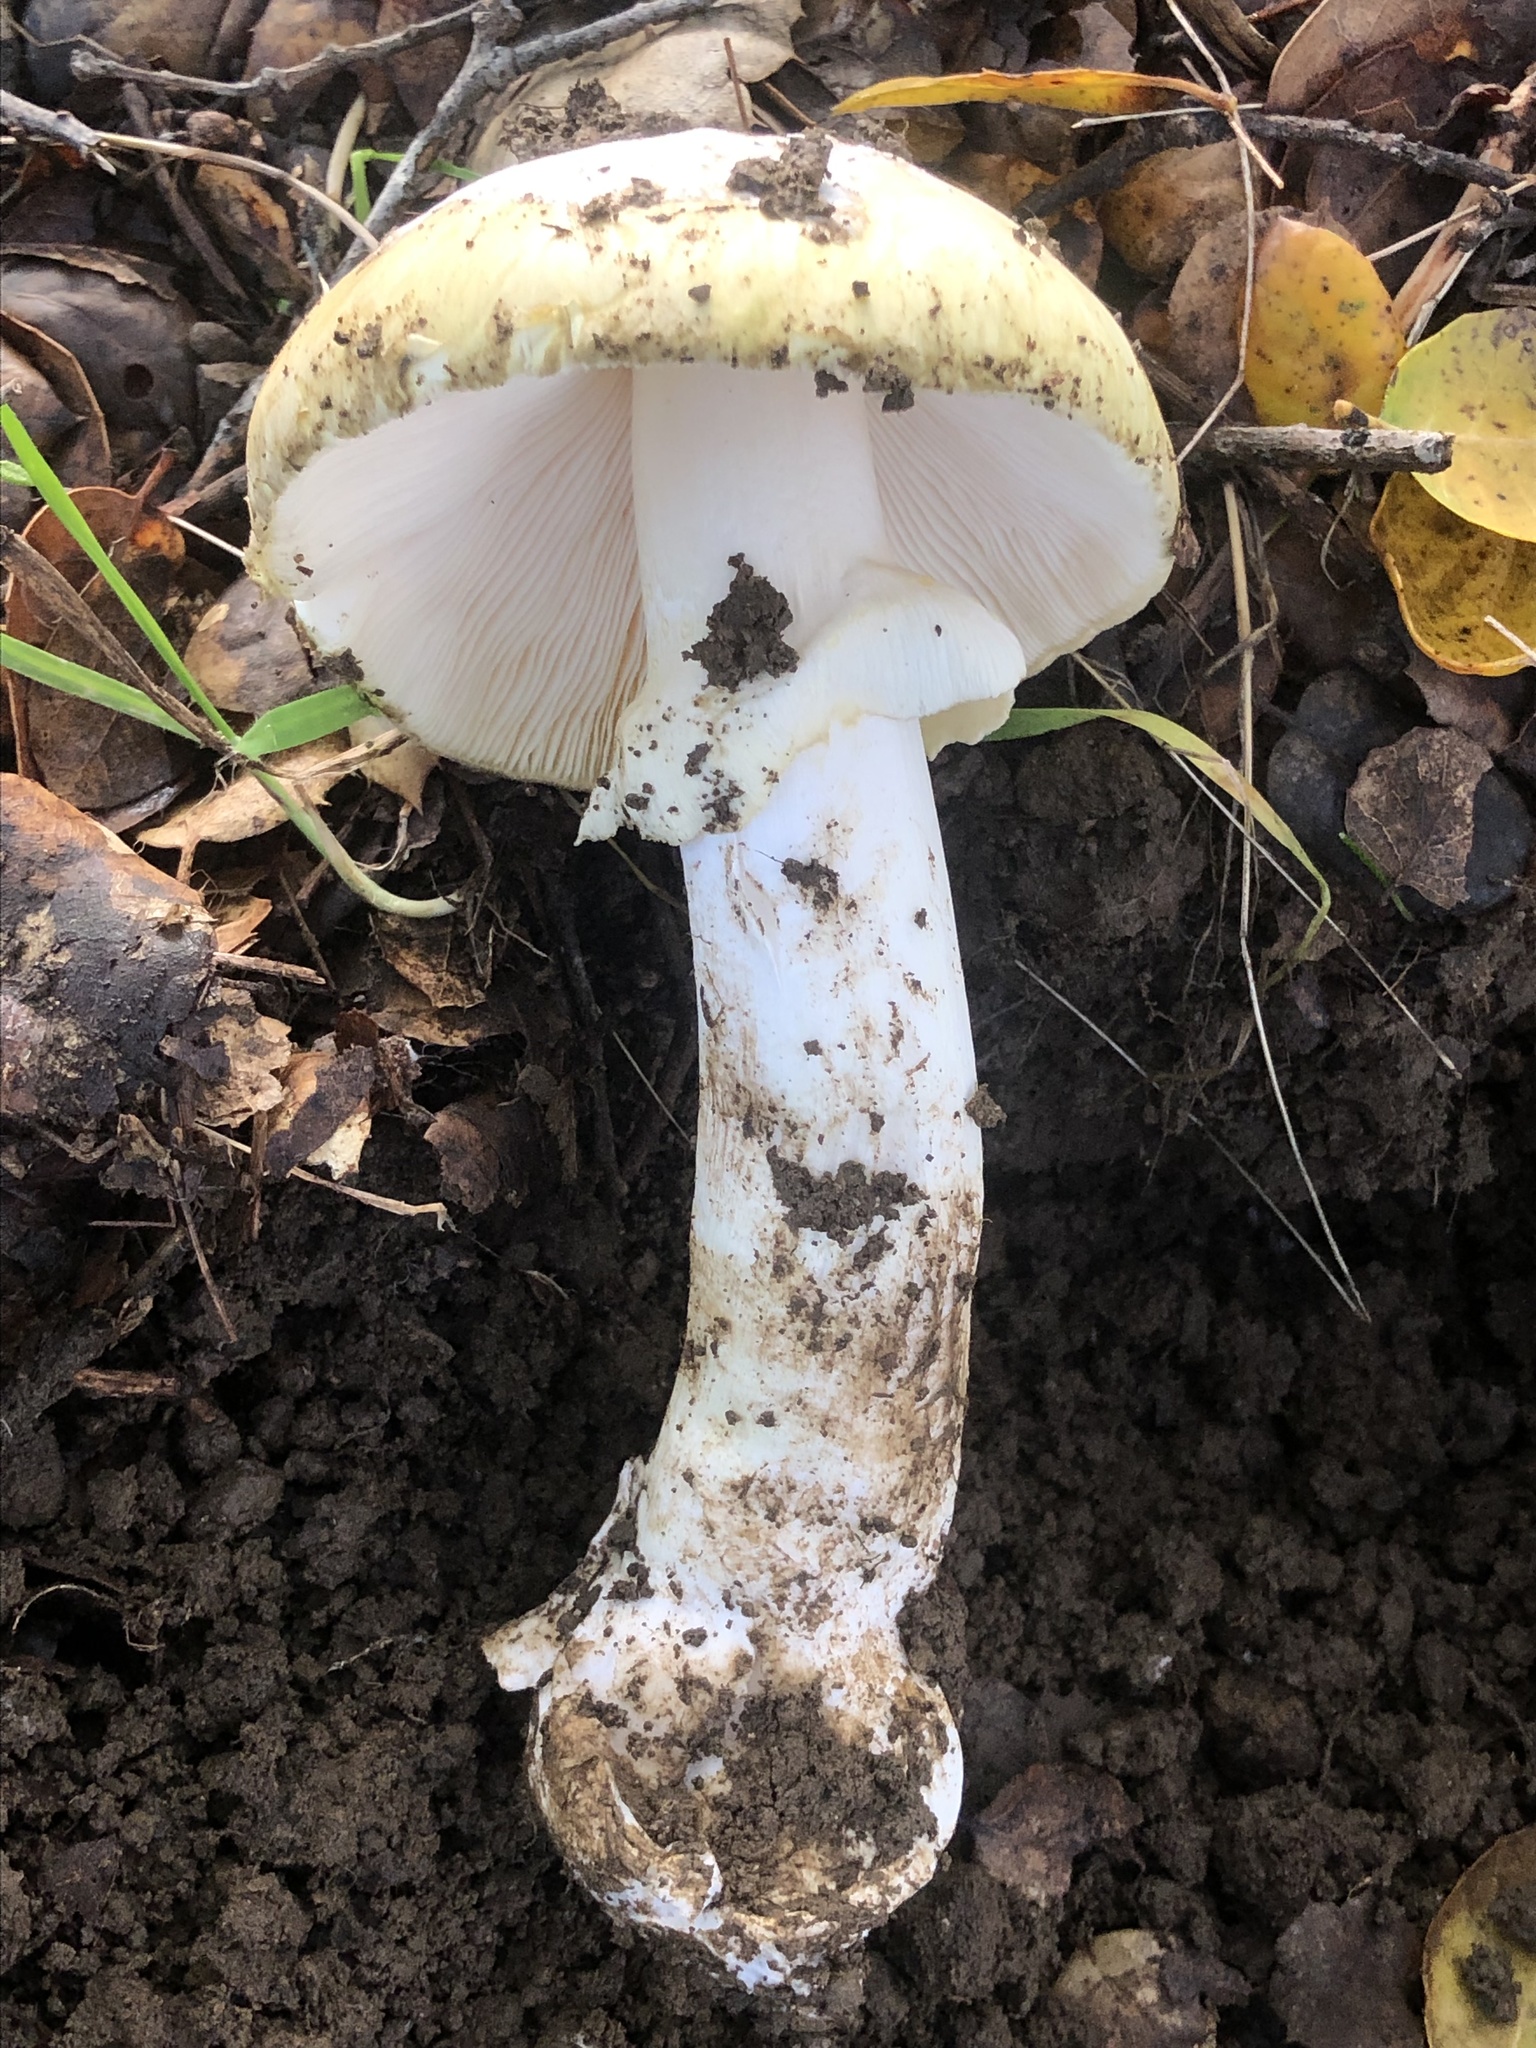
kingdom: Fungi
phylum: Basidiomycota
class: Agaricomycetes
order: Agaricales
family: Amanitaceae
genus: Amanita
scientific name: Amanita phalloides
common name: Death cap
